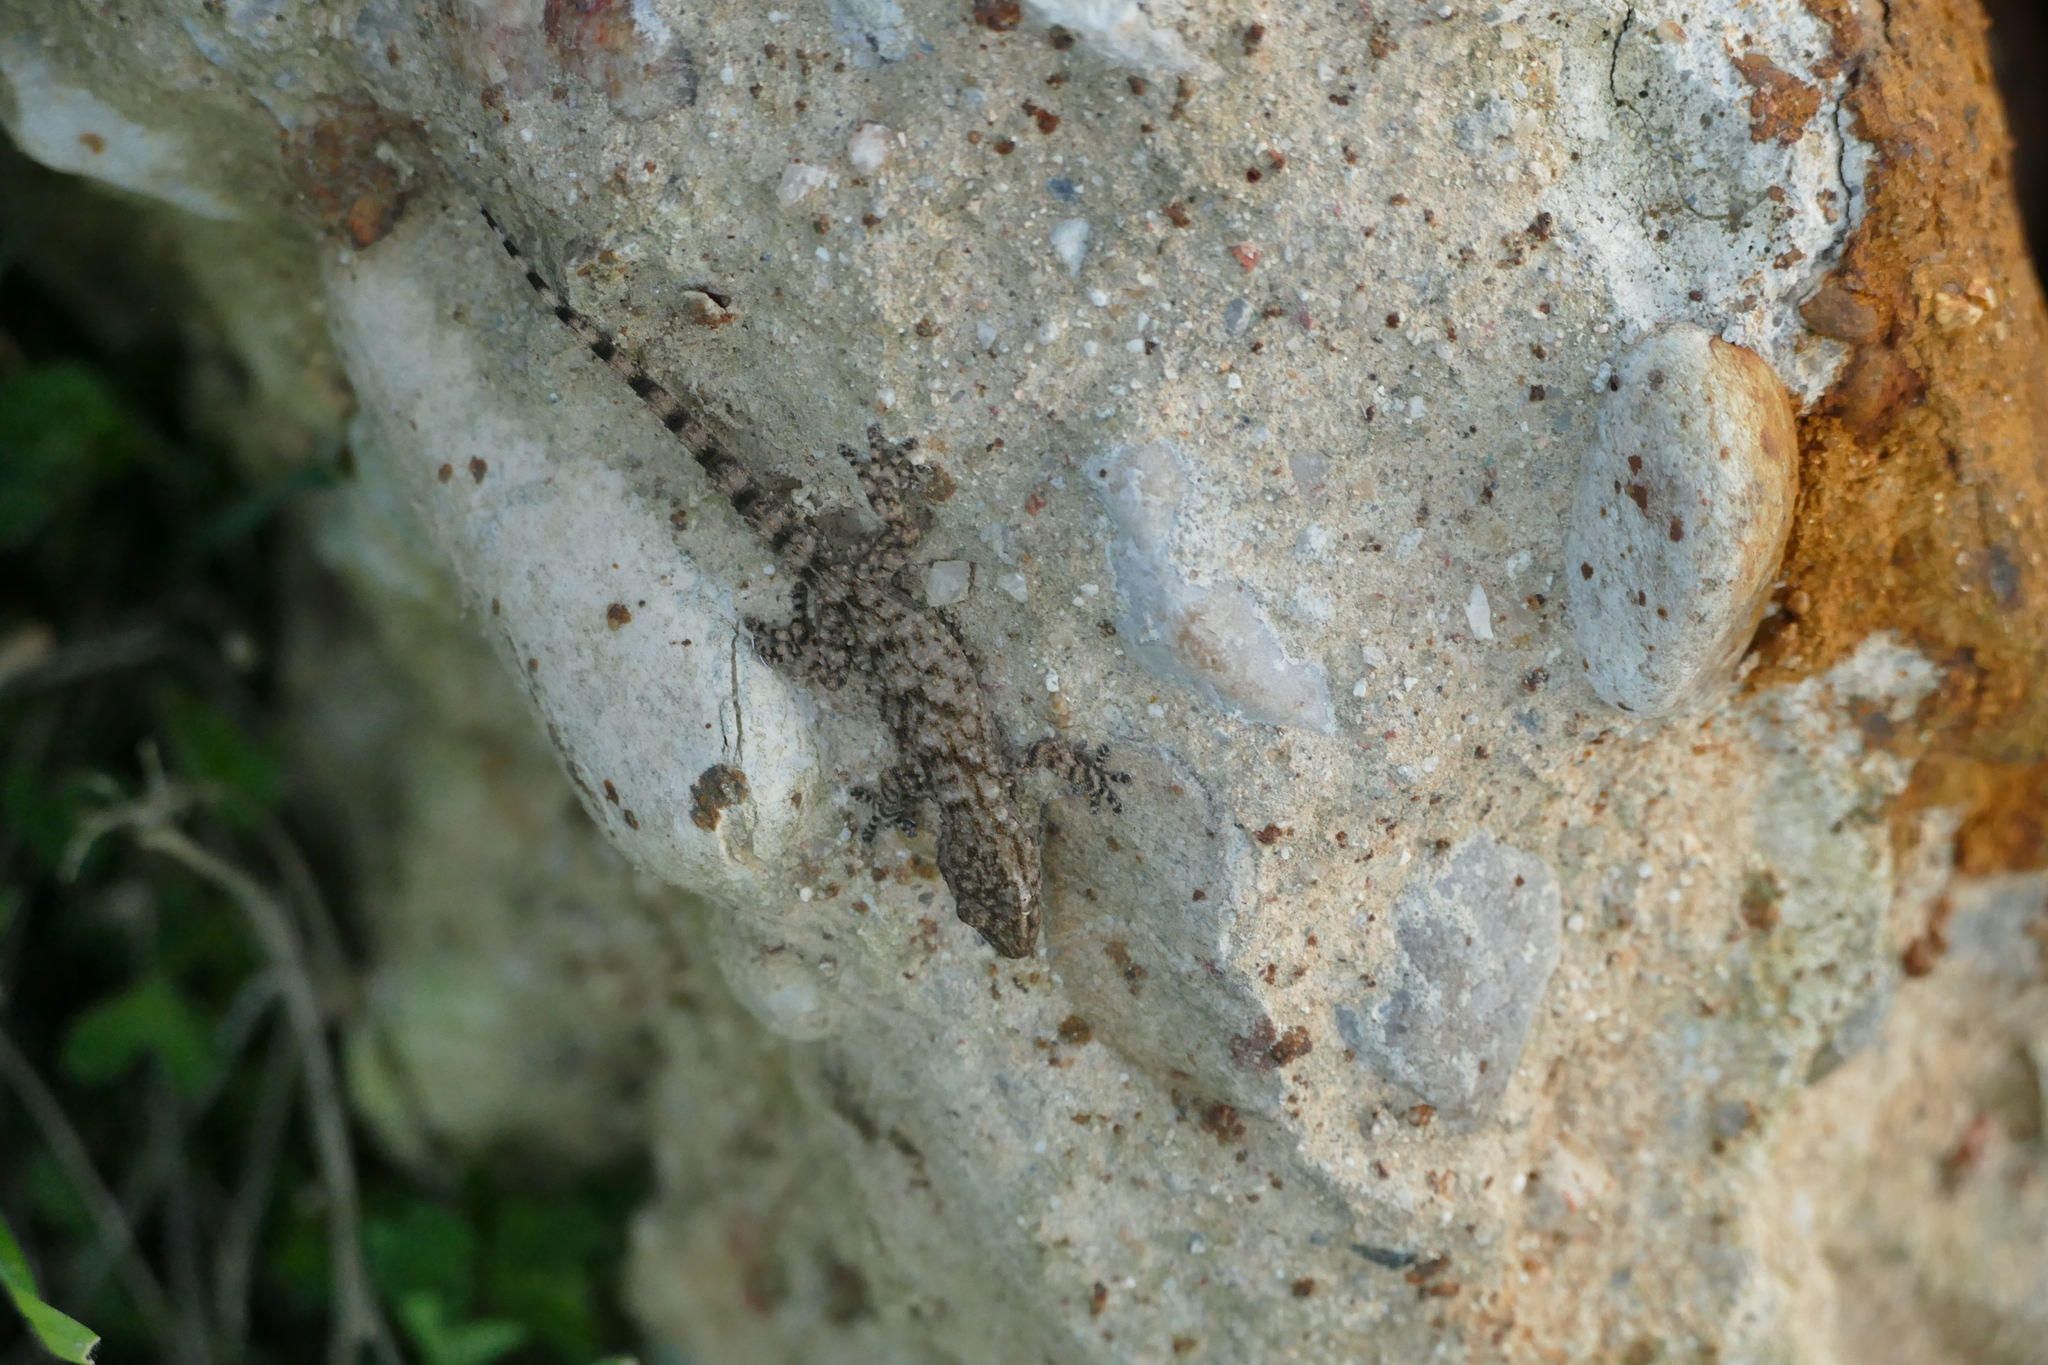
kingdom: Animalia
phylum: Chordata
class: Squamata
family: Phyllodactylidae
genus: Tarentola
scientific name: Tarentola mauritanica
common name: Moorish gecko
